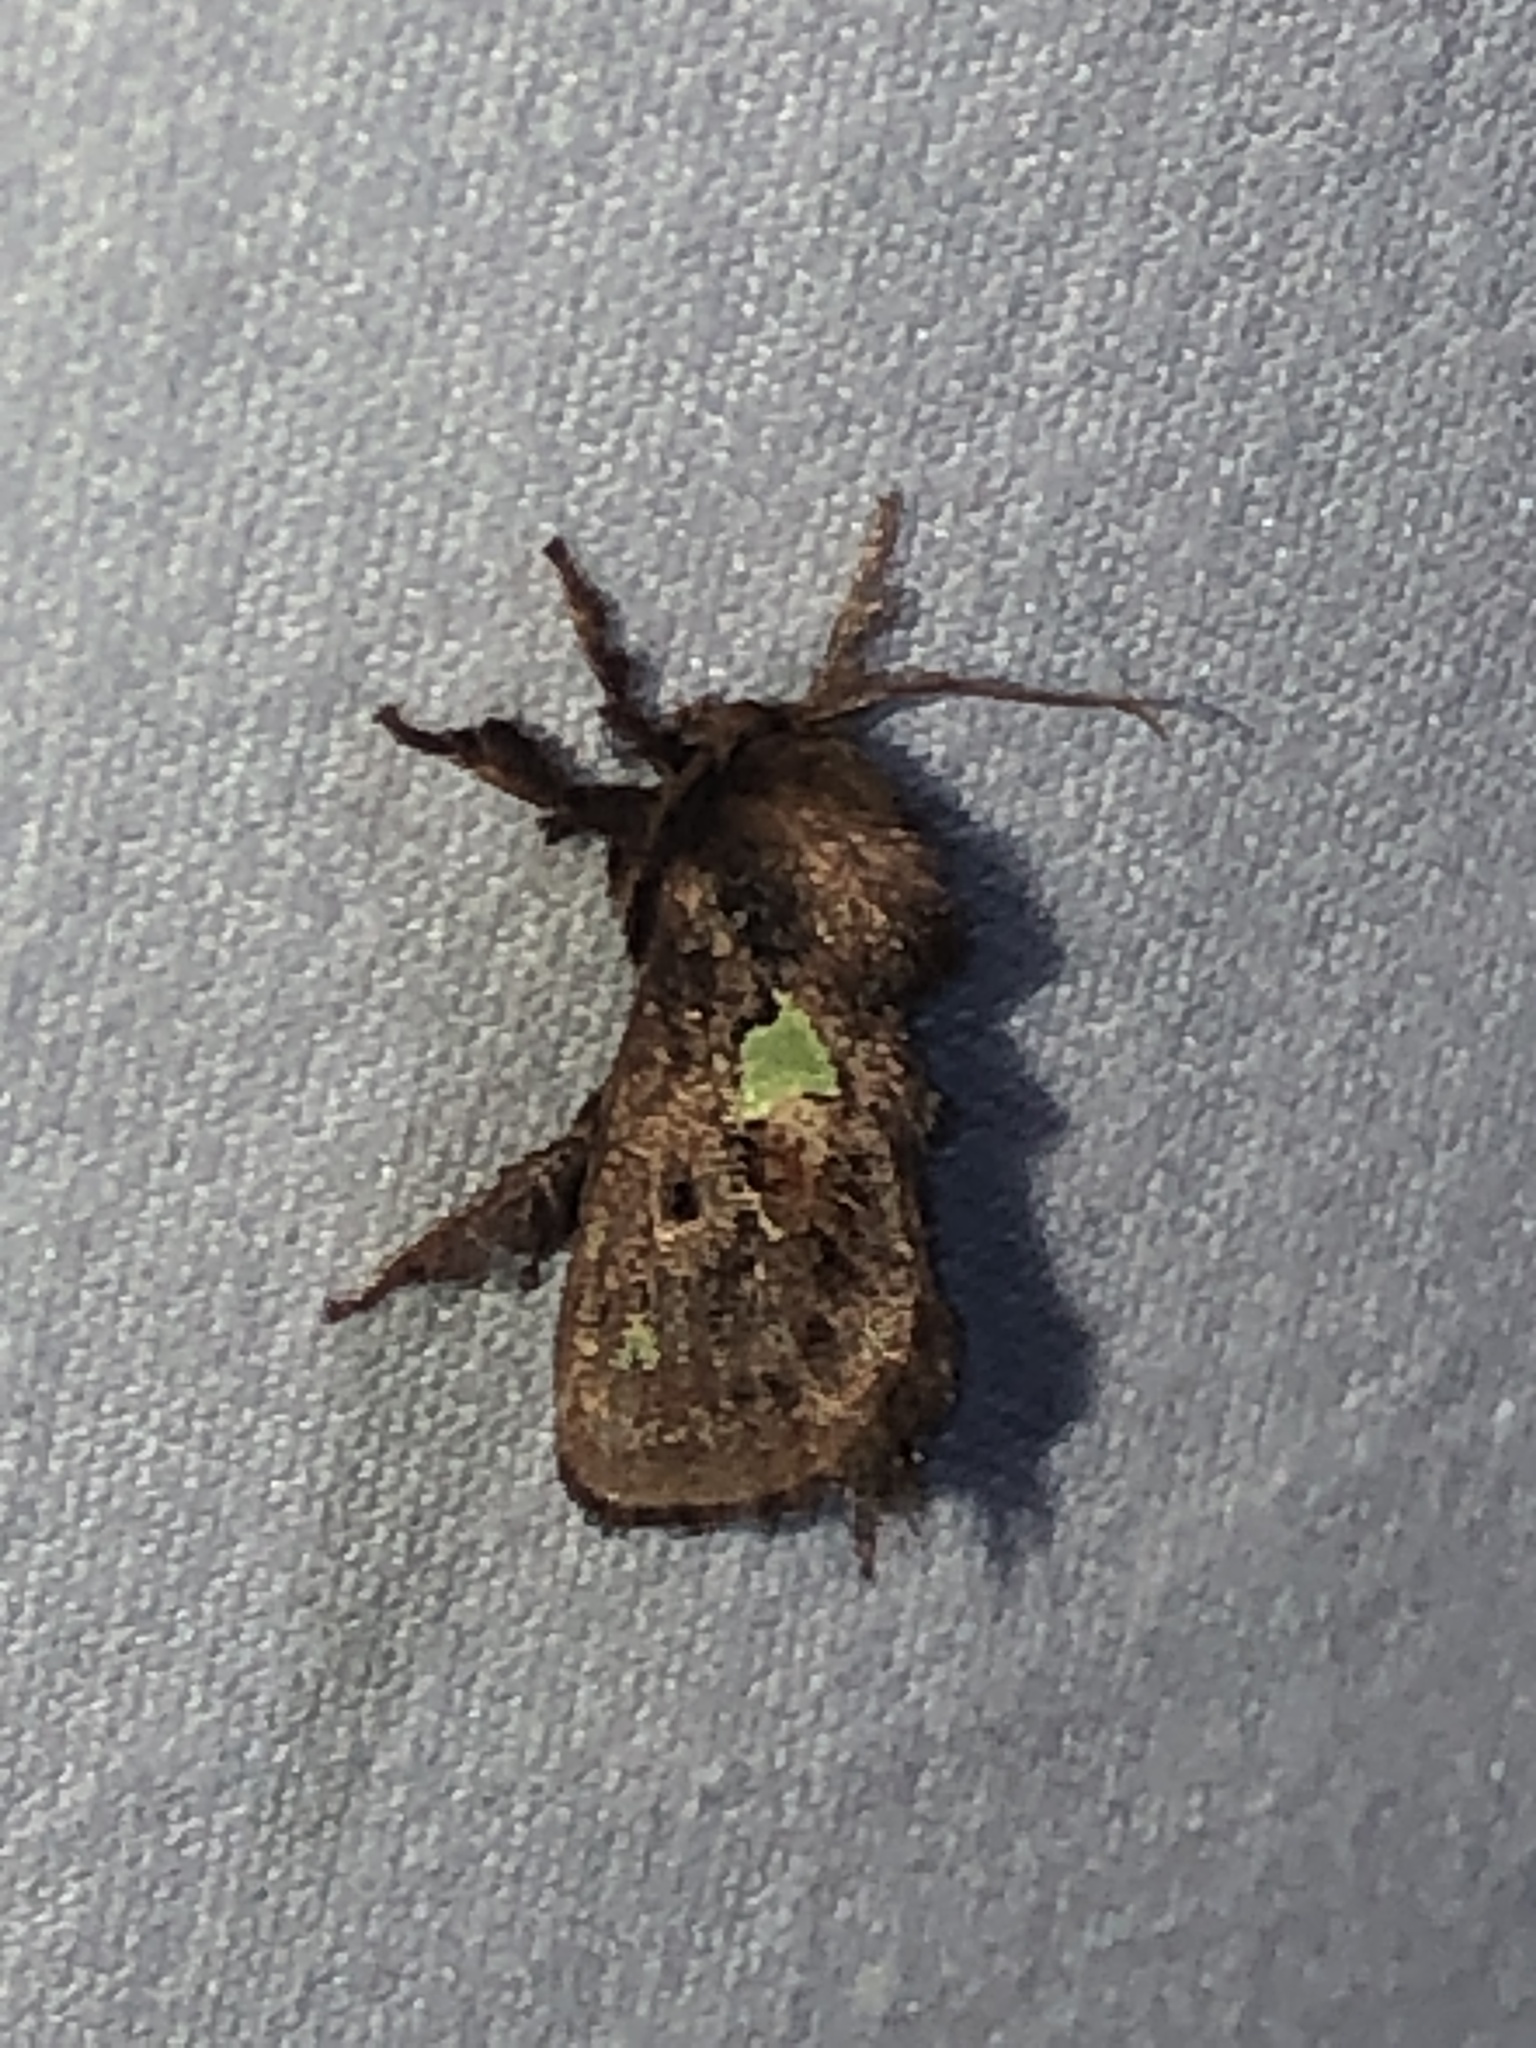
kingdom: Animalia
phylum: Arthropoda
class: Insecta
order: Lepidoptera
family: Limacodidae
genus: Euclea
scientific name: Euclea delphinii
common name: Spiny oak-slug moth
